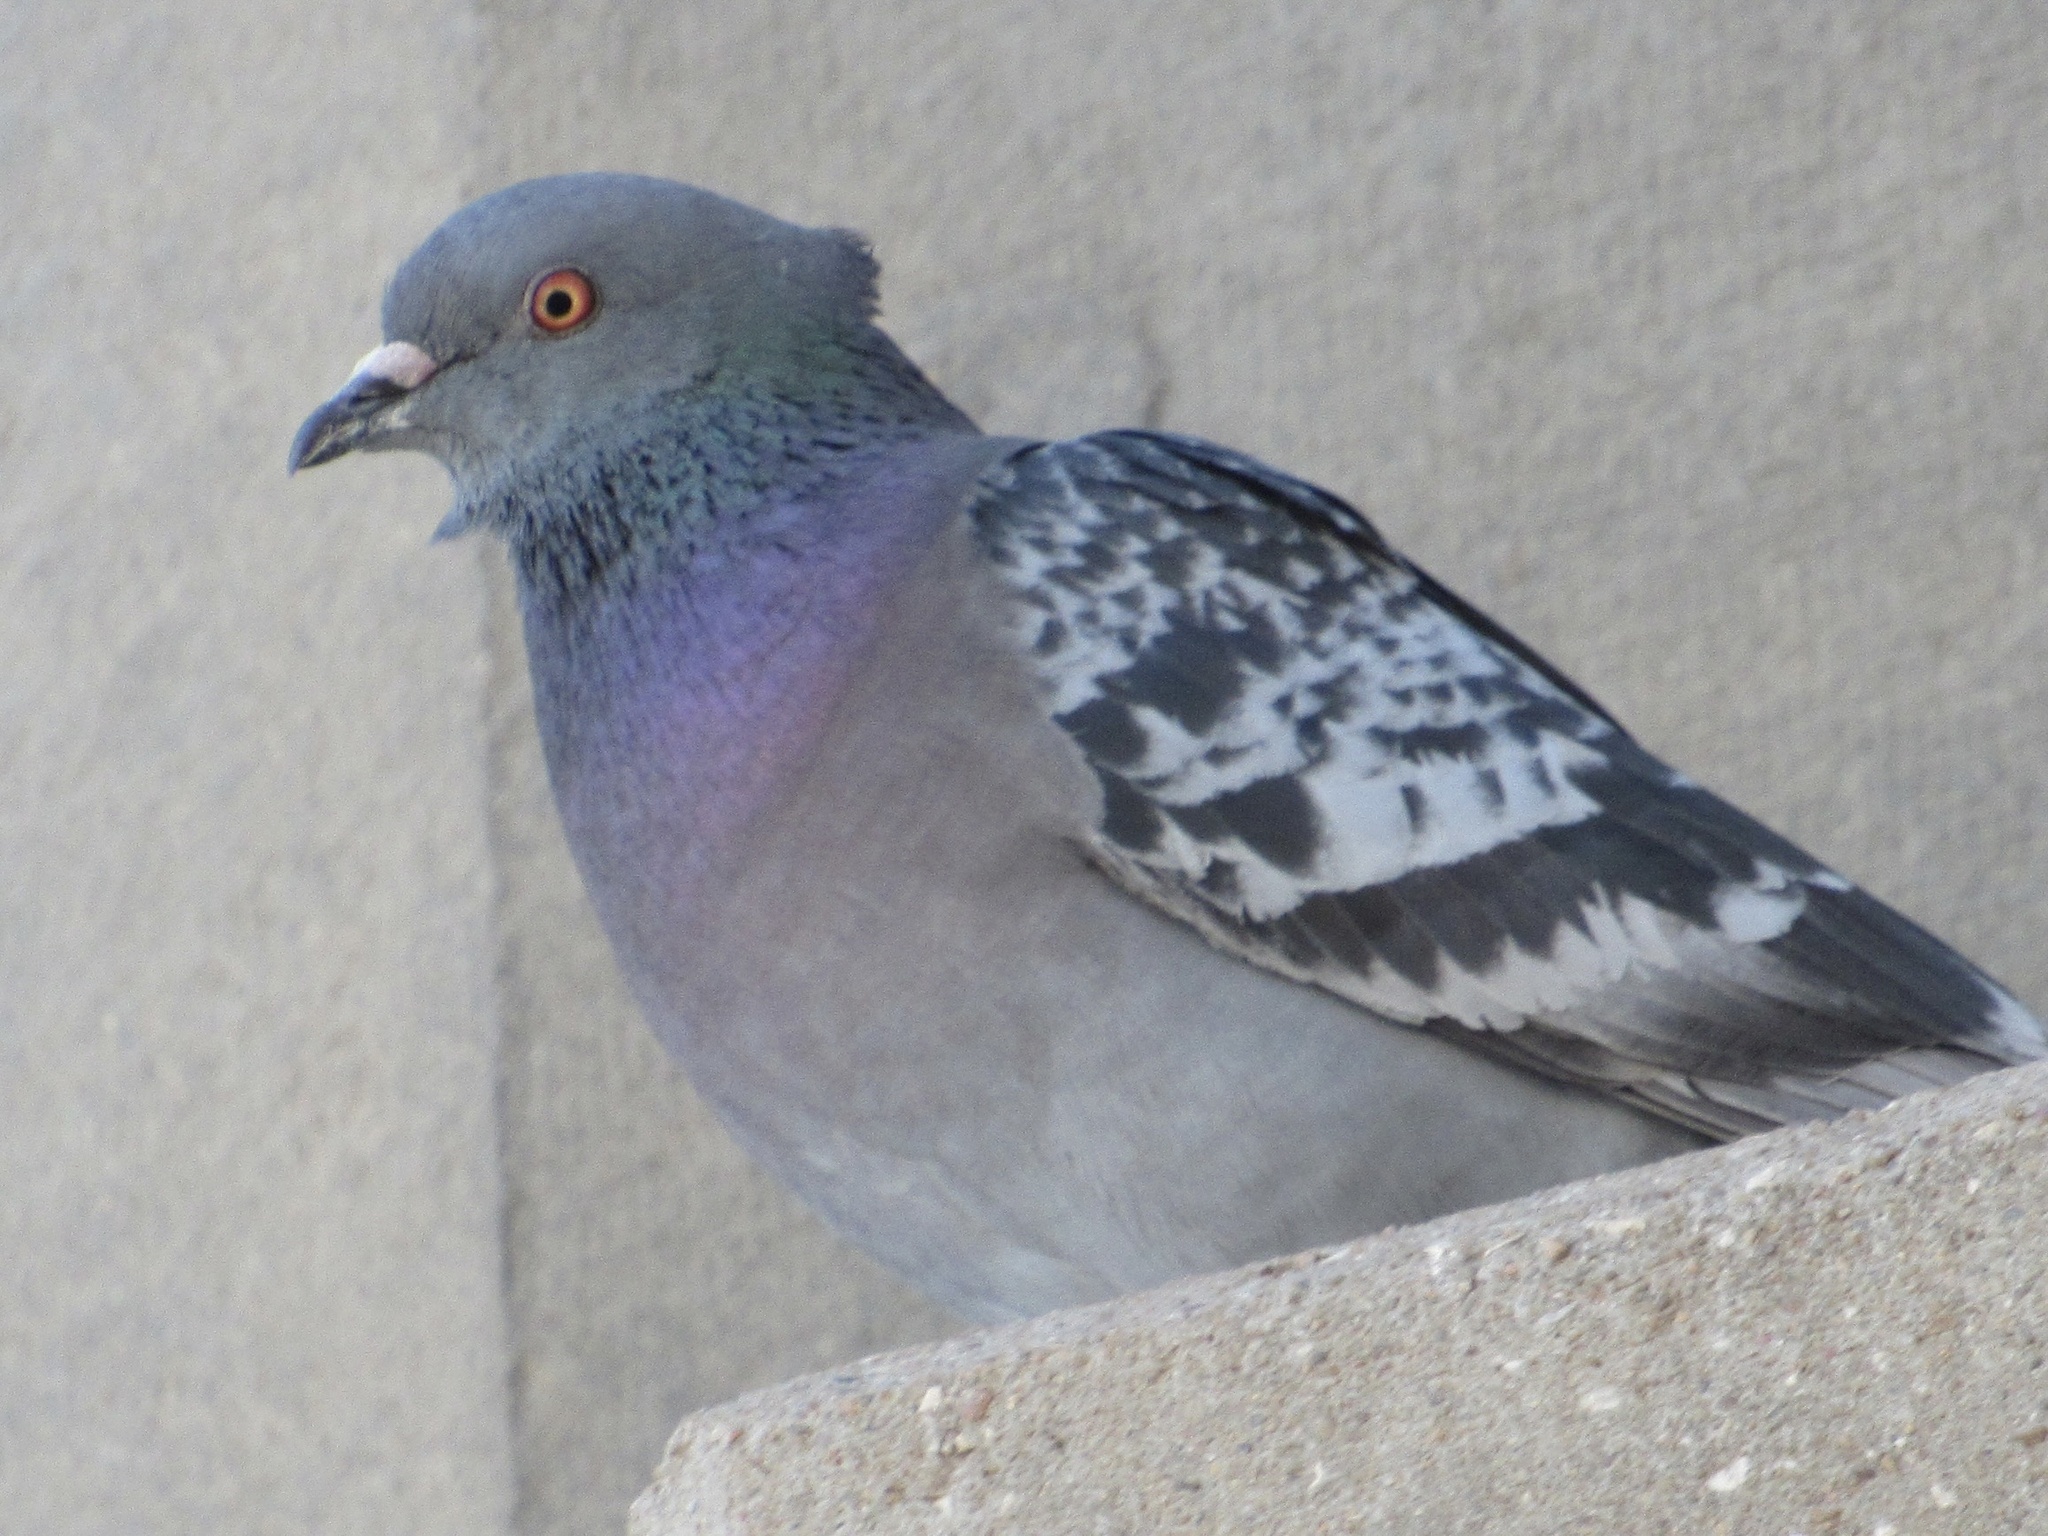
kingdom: Animalia
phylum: Chordata
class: Aves
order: Columbiformes
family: Columbidae
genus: Columba
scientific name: Columba livia
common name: Rock pigeon
